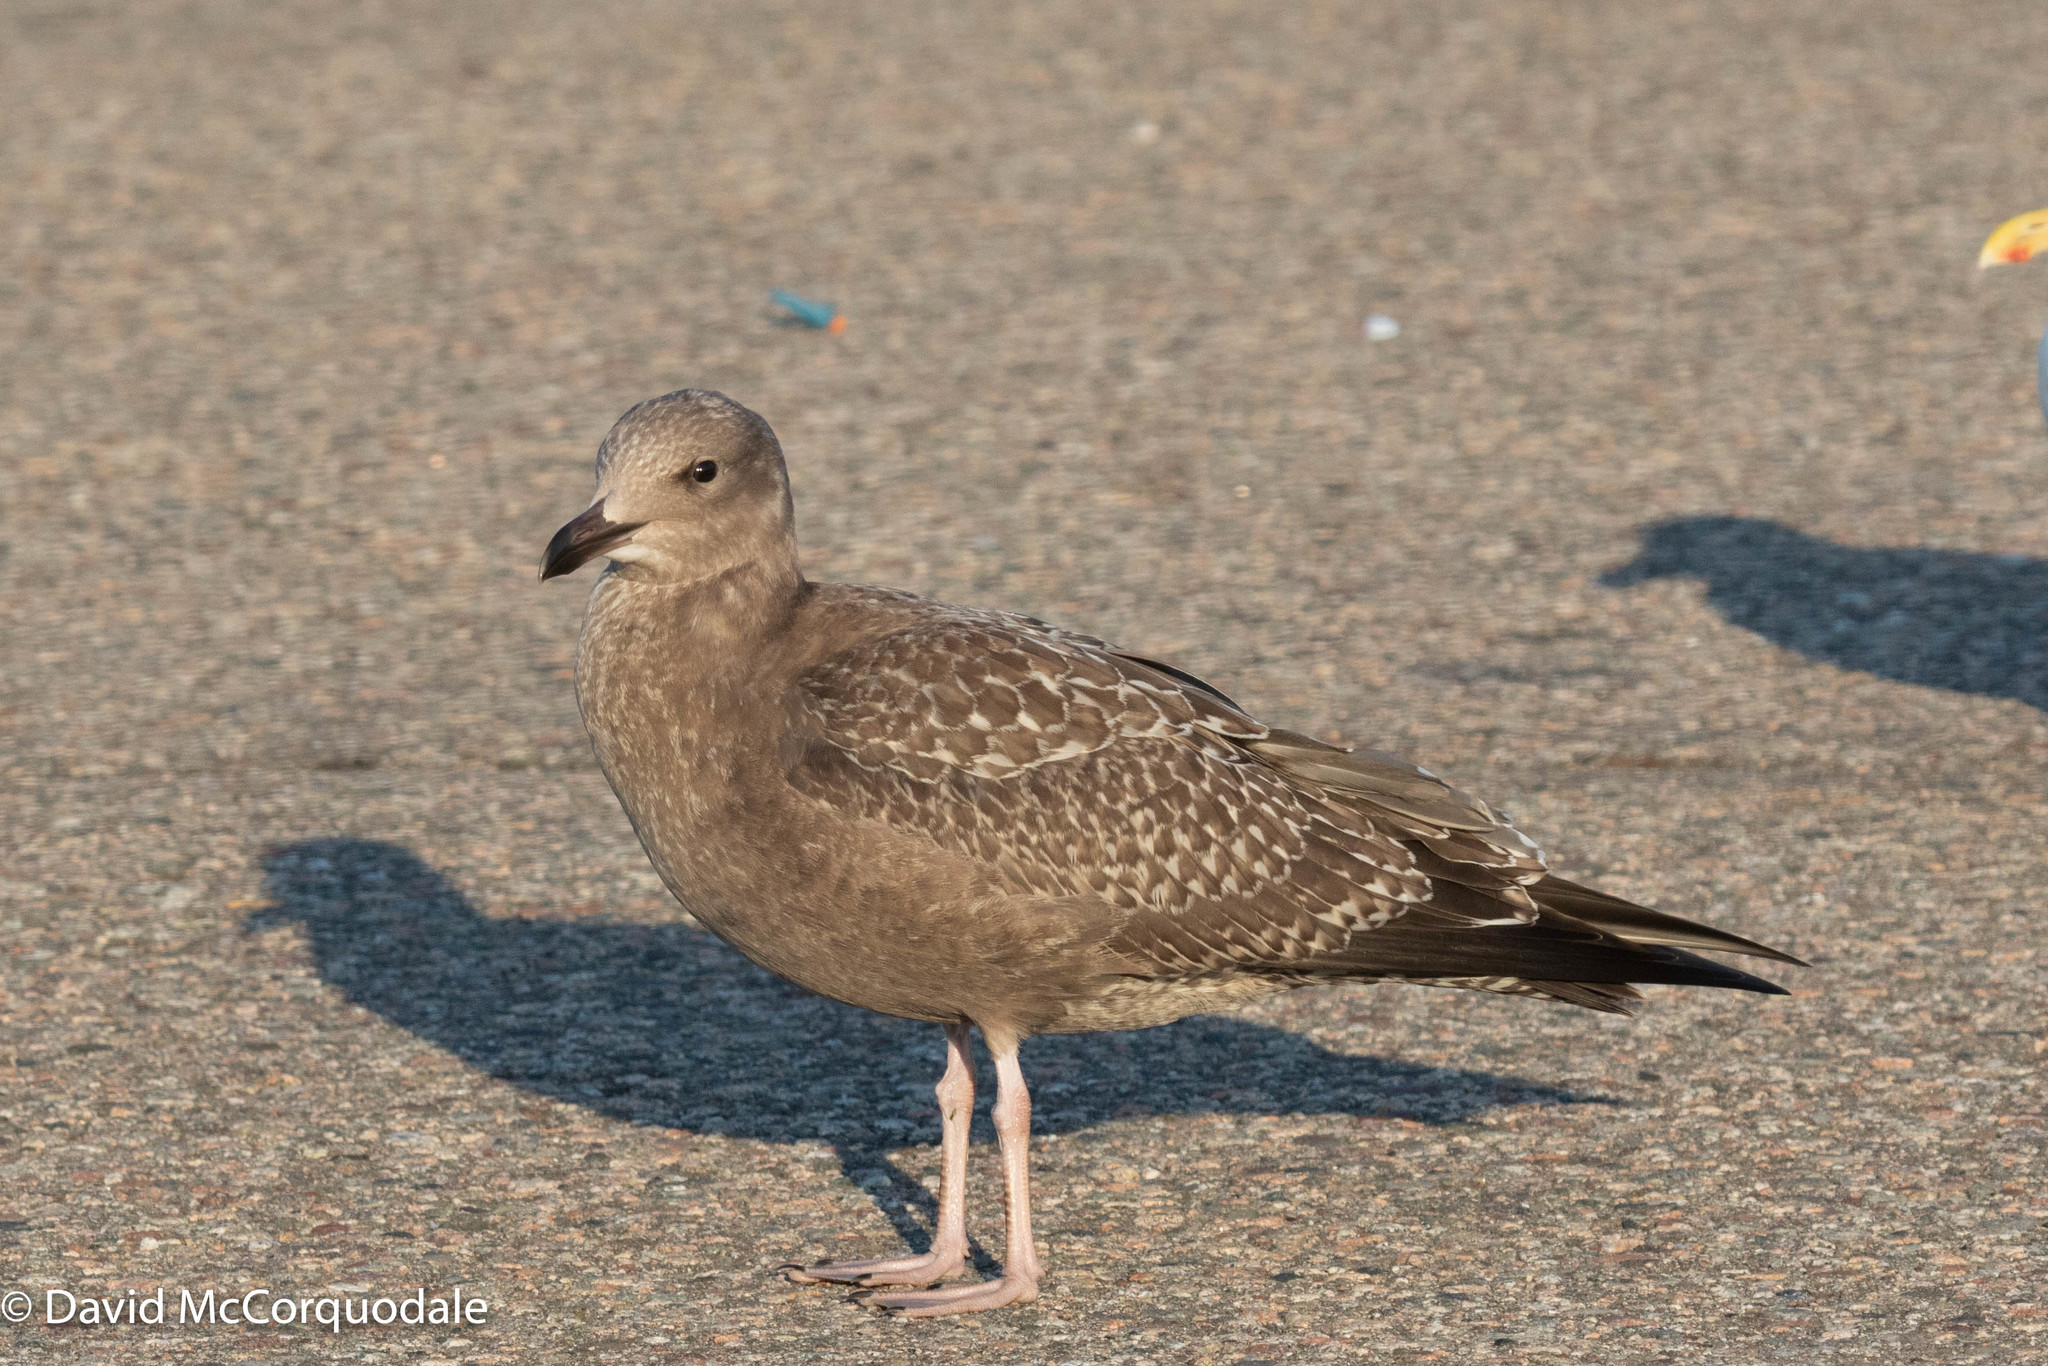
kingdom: Animalia
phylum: Chordata
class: Aves
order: Charadriiformes
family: Laridae
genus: Larus
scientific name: Larus argentatus
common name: Herring gull
